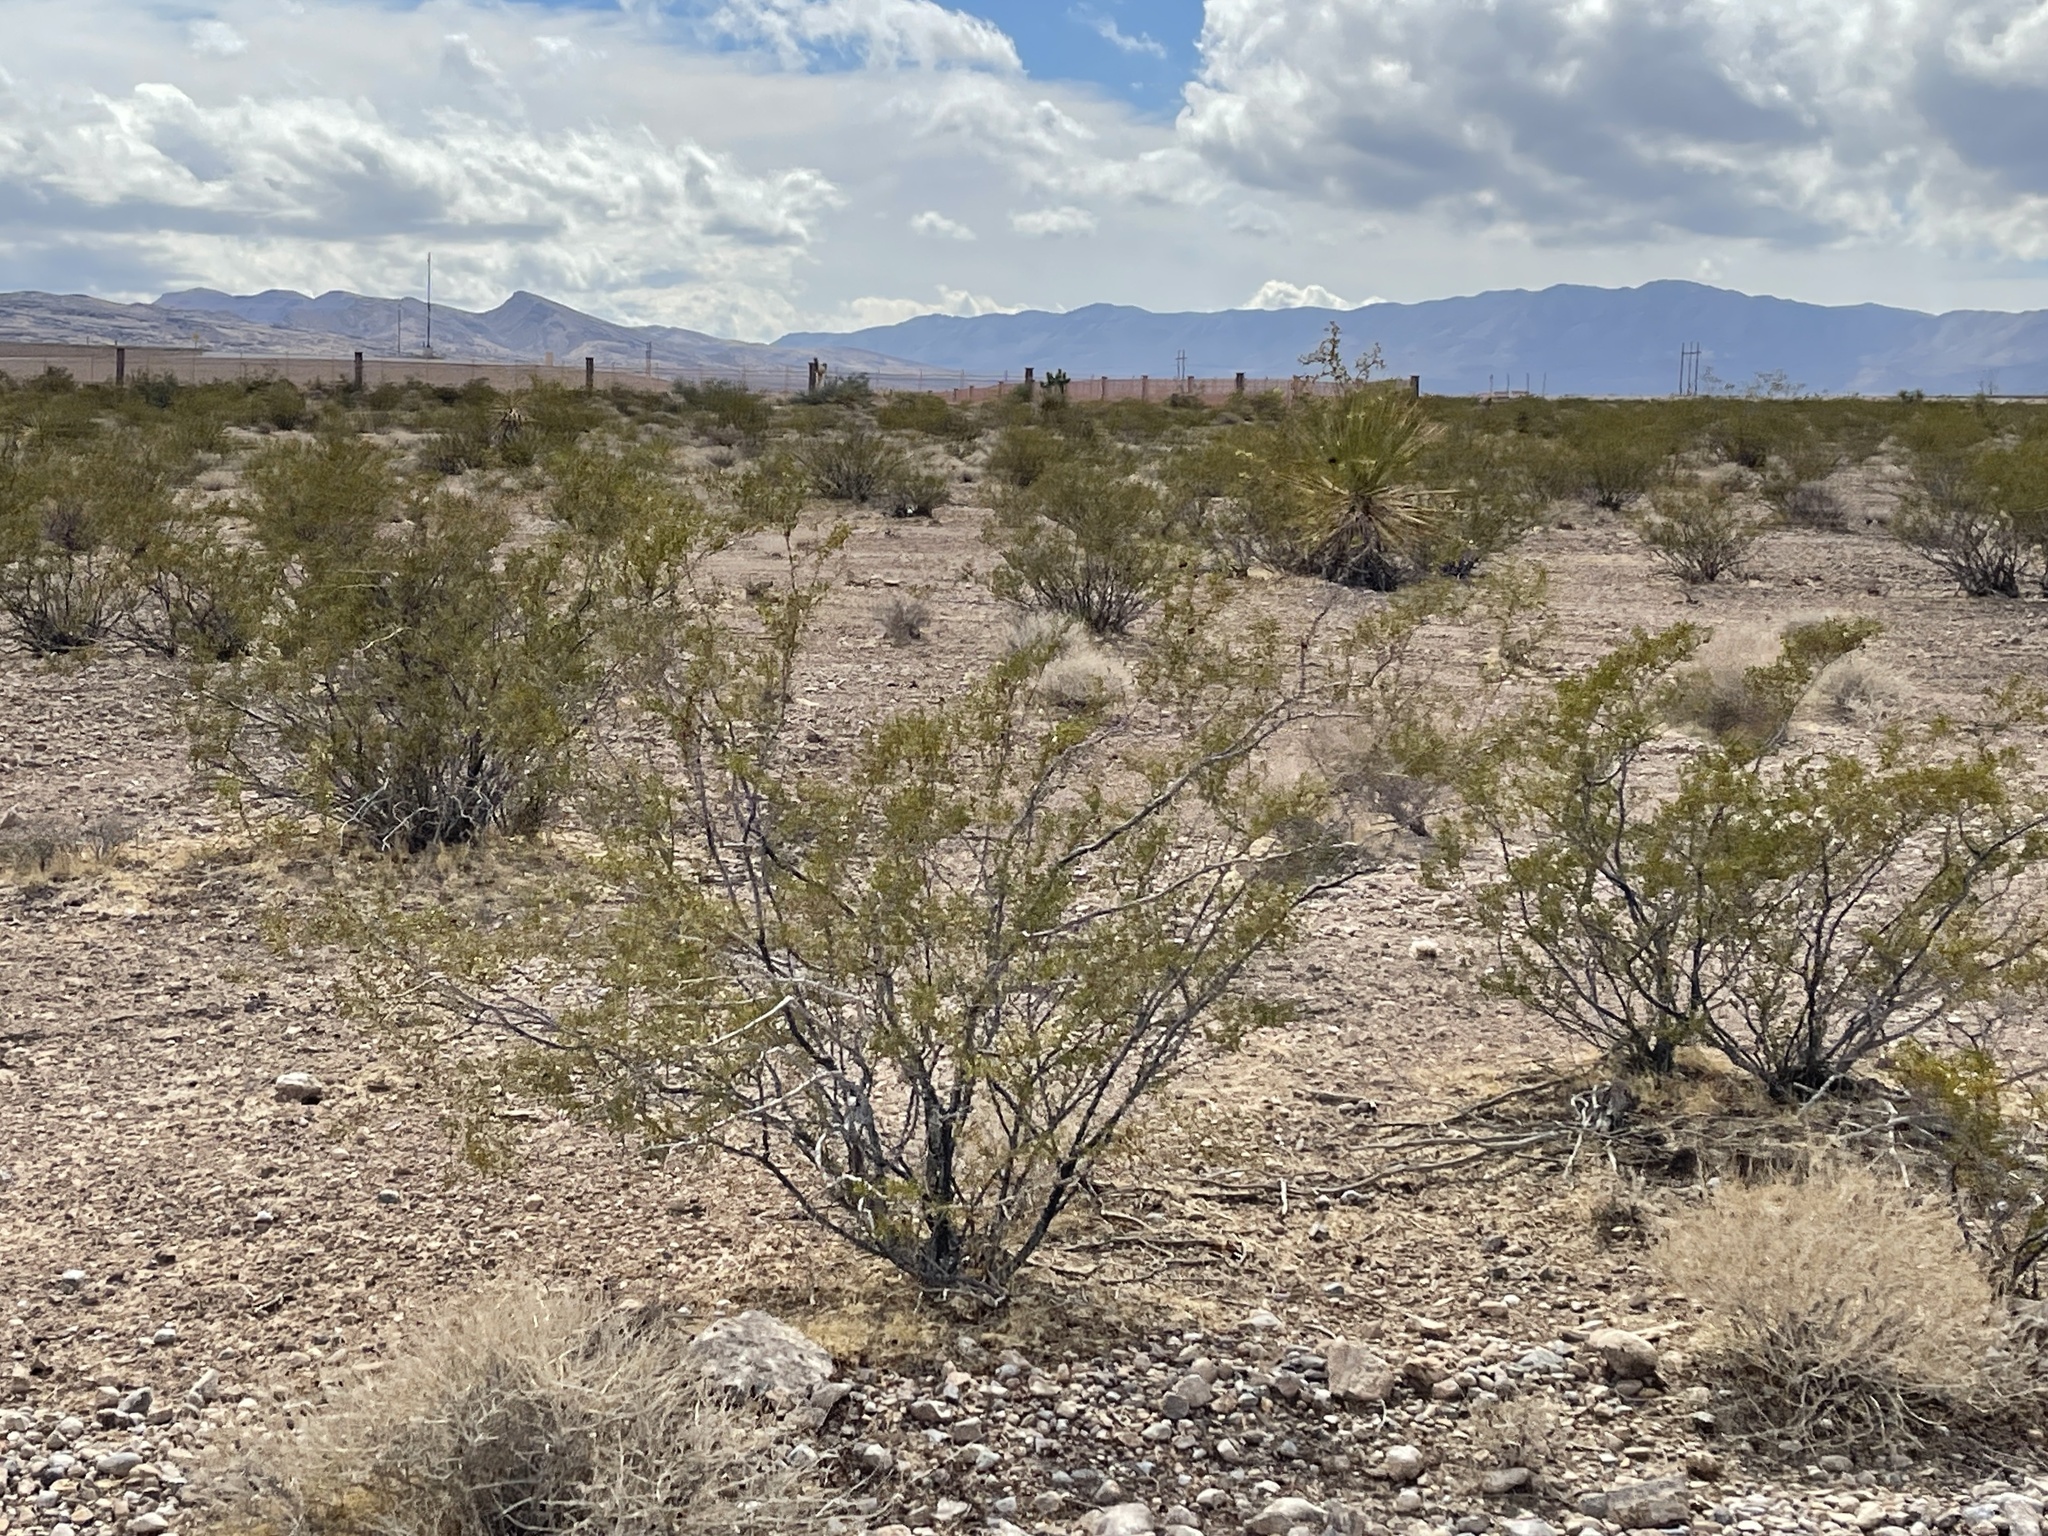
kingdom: Plantae
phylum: Tracheophyta
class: Magnoliopsida
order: Zygophyllales
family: Zygophyllaceae
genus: Larrea
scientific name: Larrea tridentata
